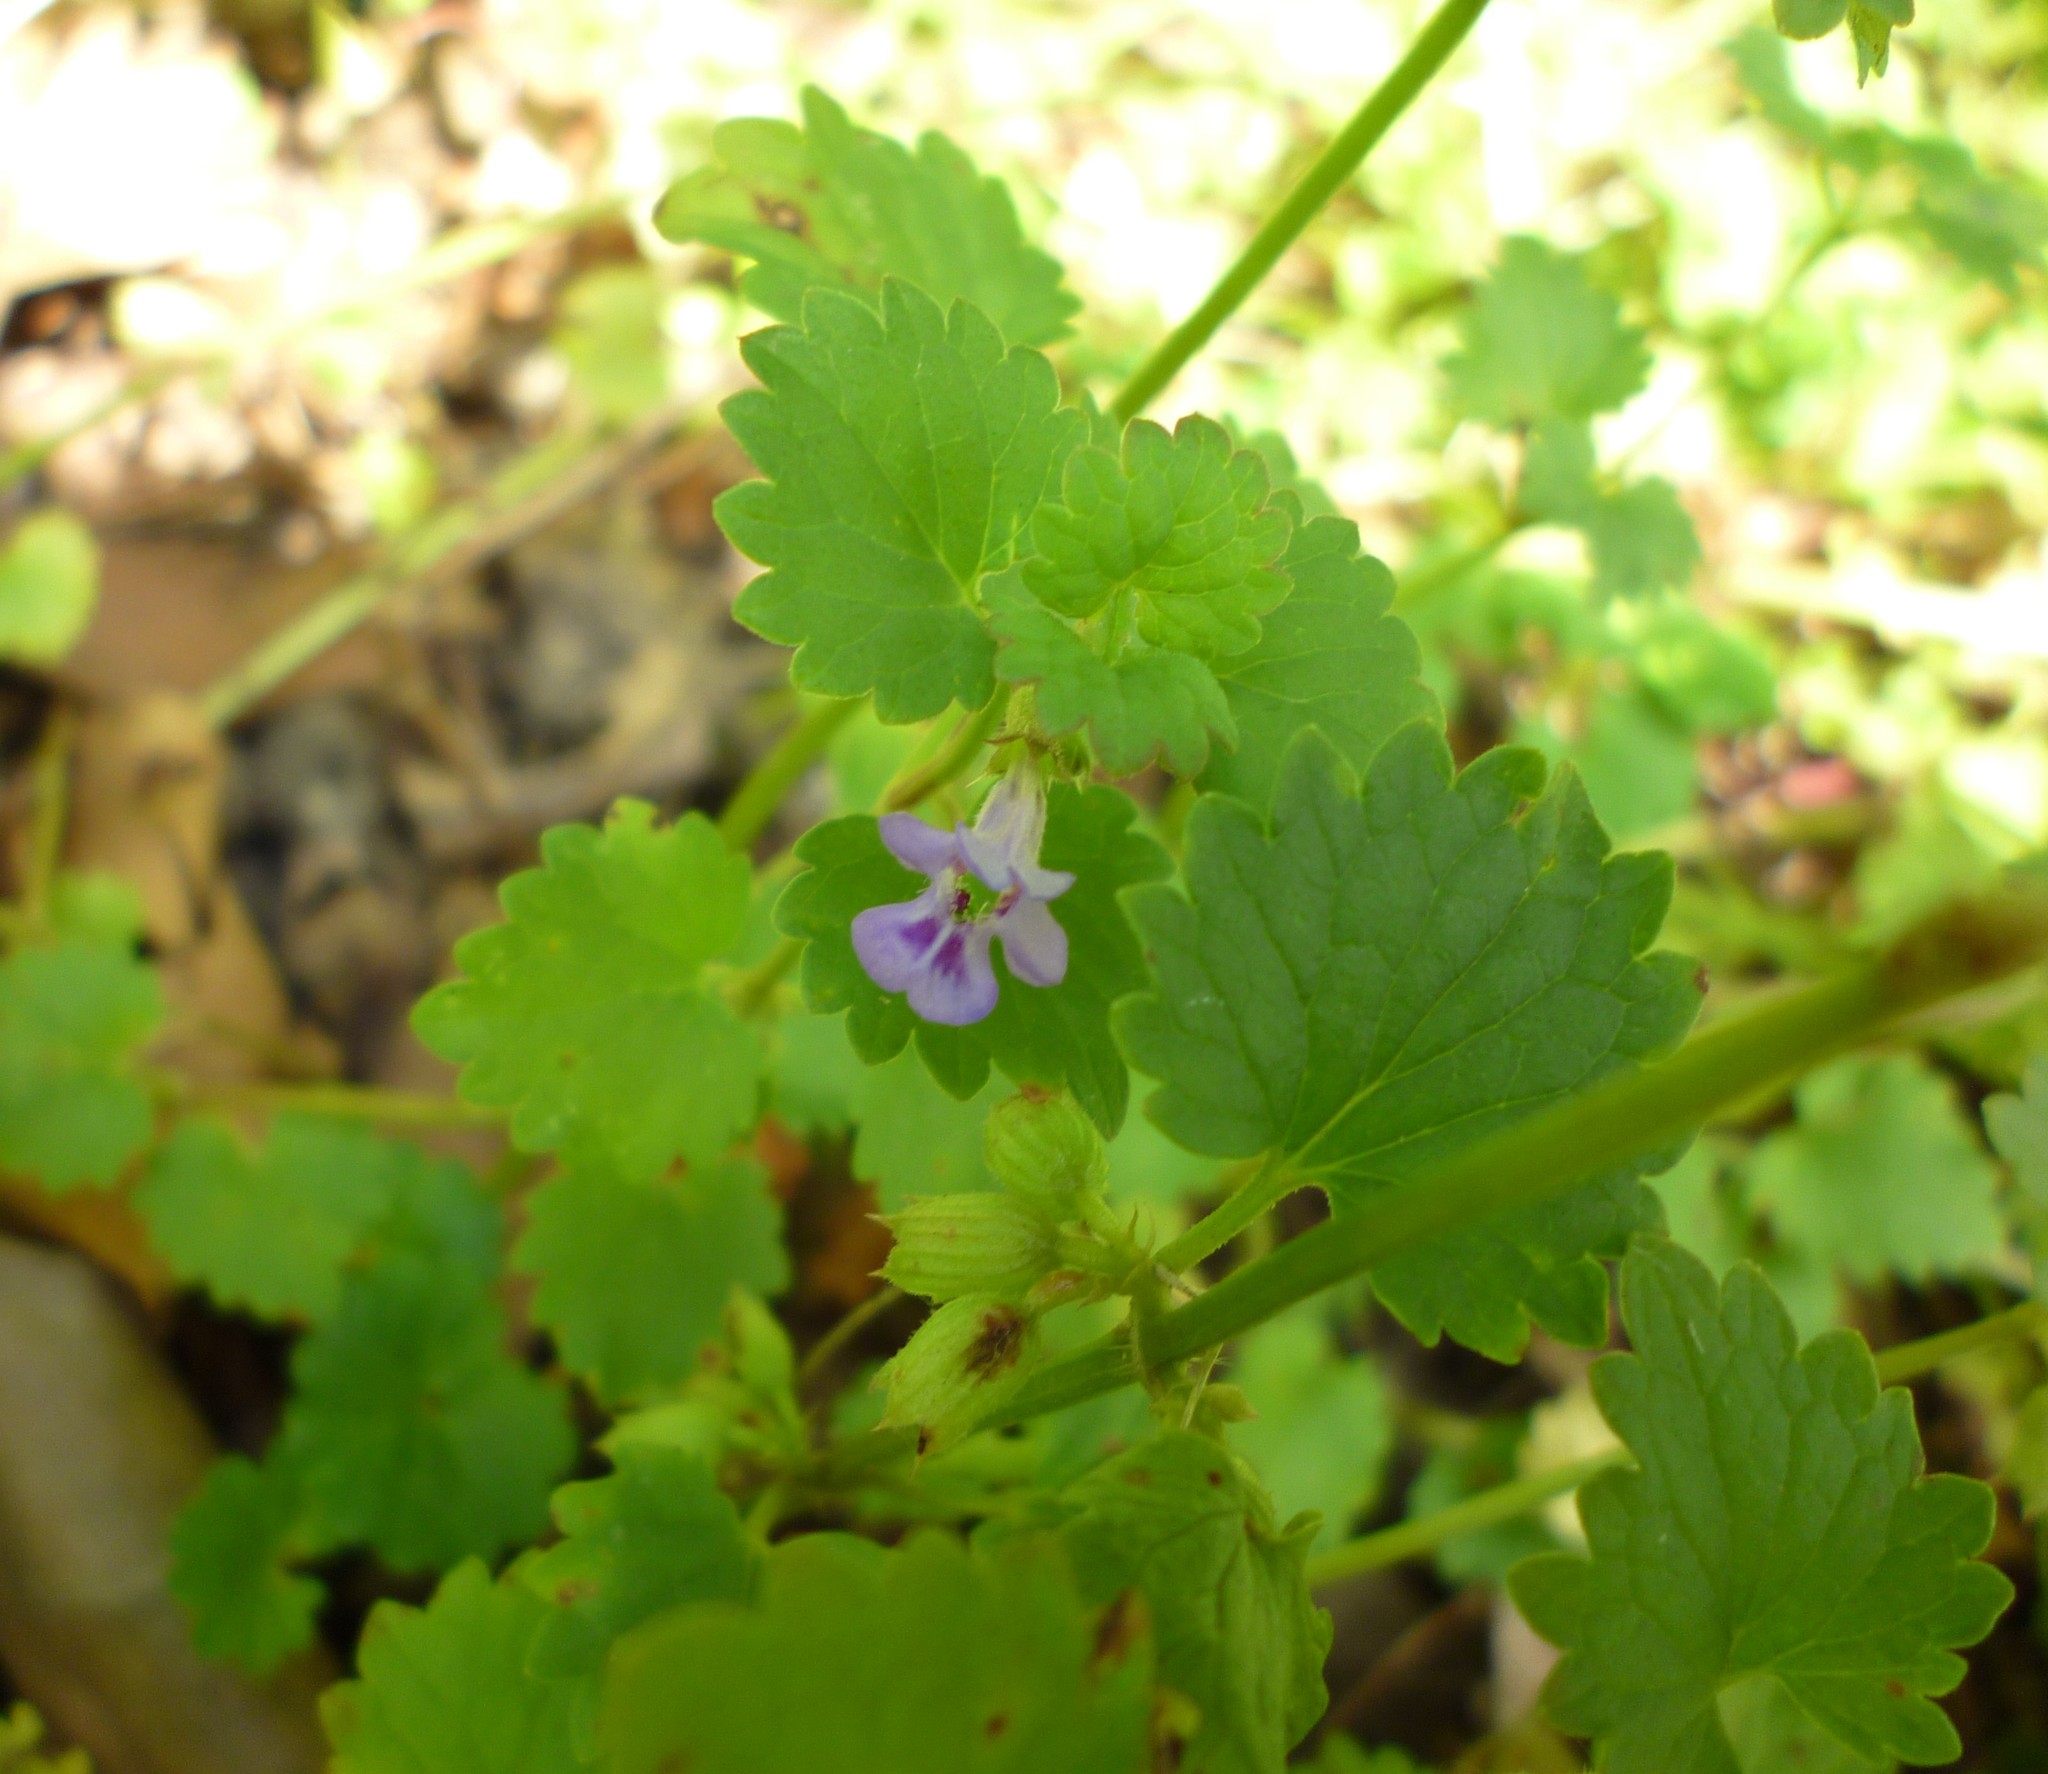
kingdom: Plantae
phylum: Tracheophyta
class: Magnoliopsida
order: Lamiales
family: Lamiaceae
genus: Glechoma
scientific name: Glechoma hederacea
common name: Ground ivy
